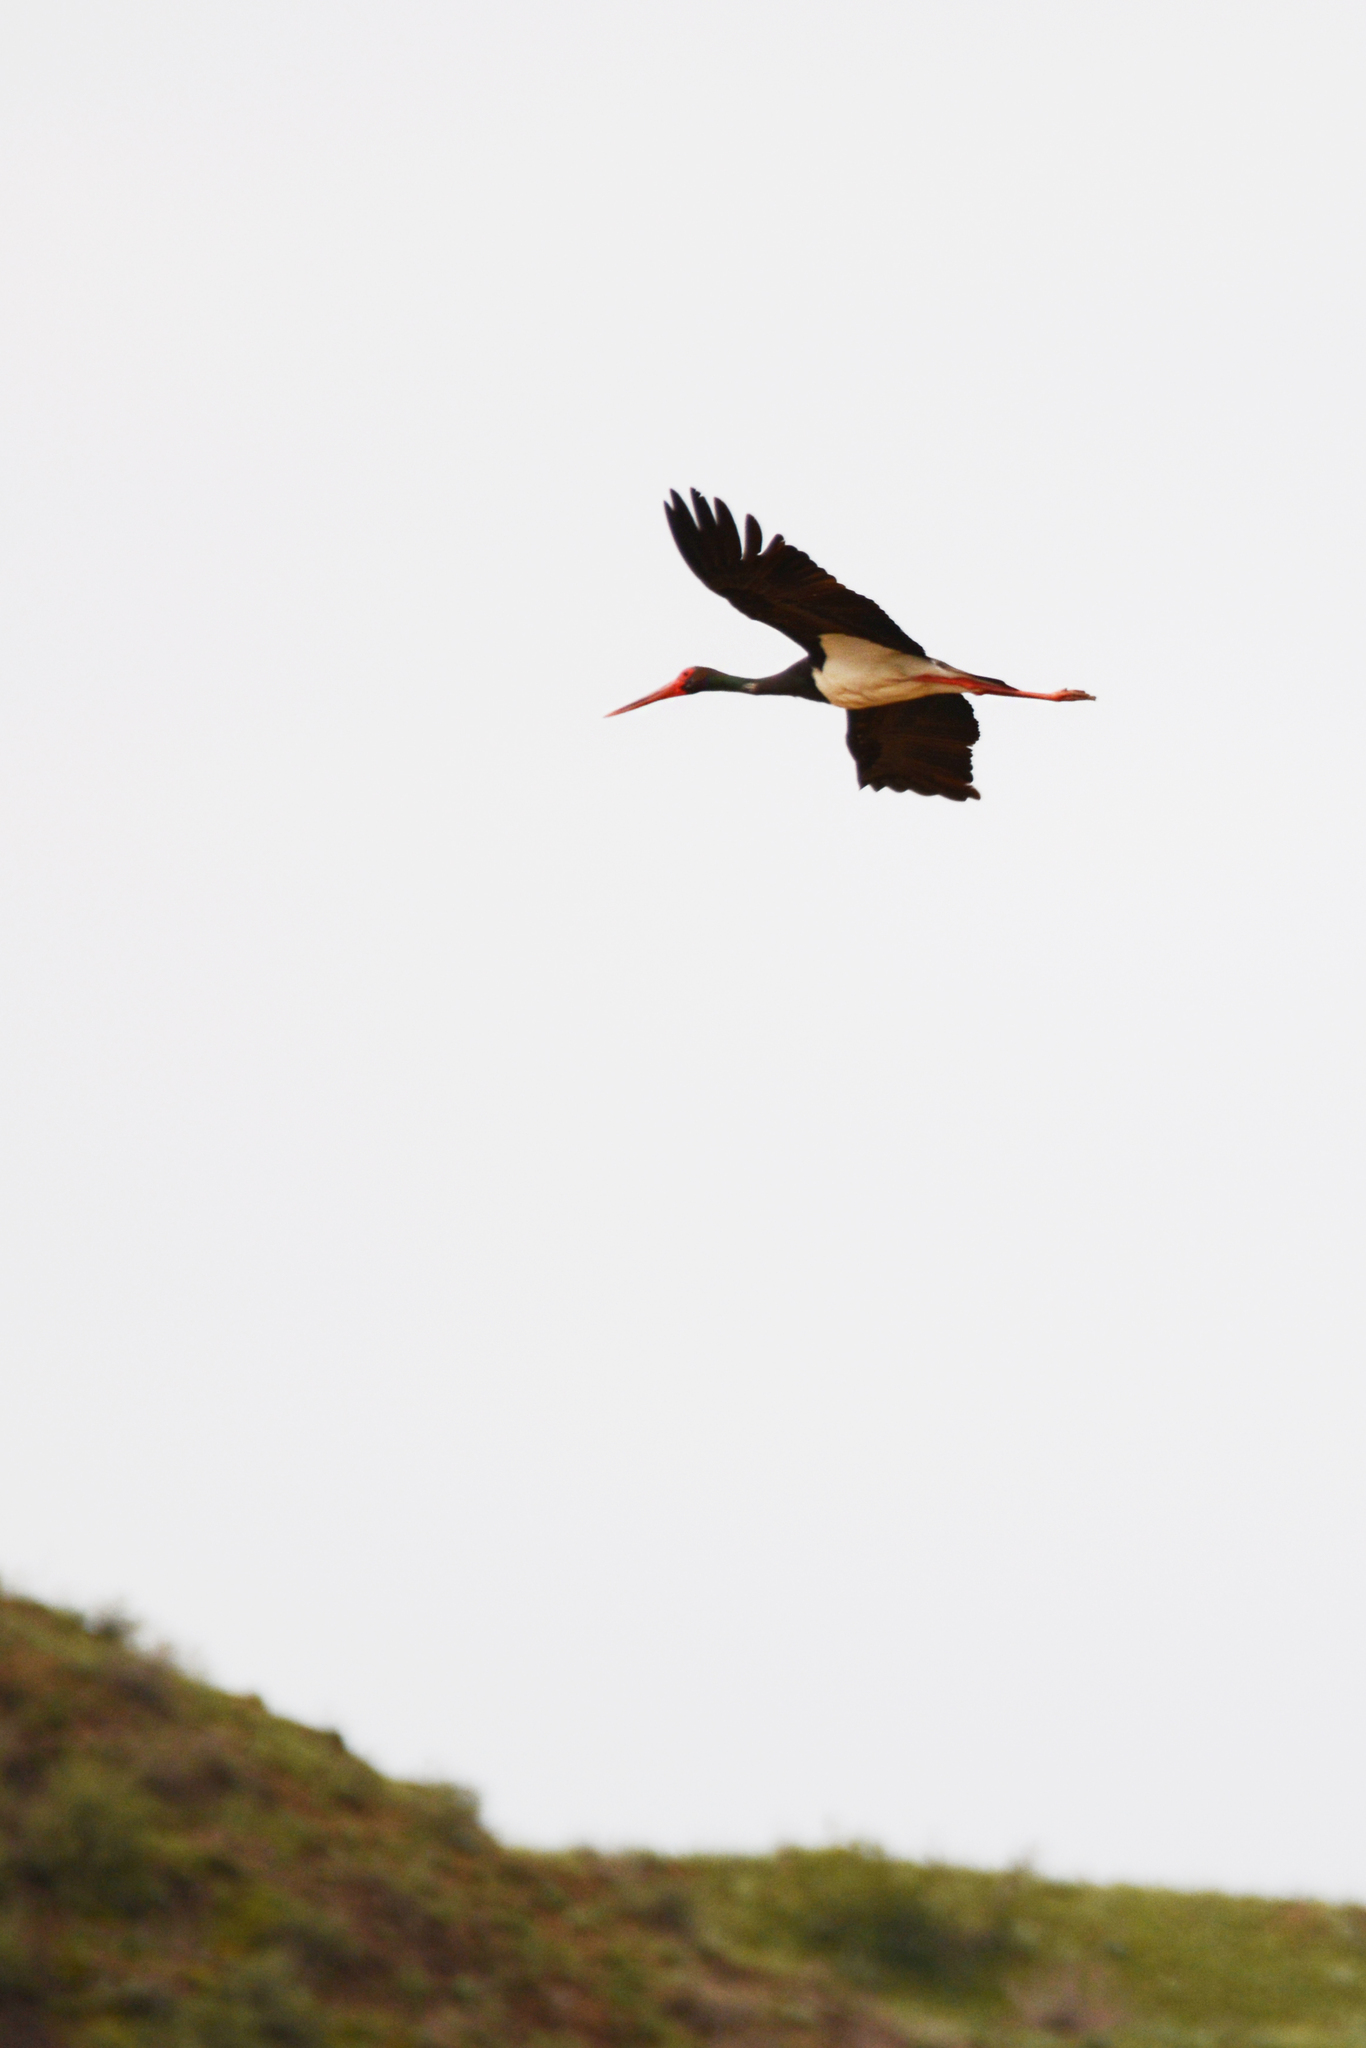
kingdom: Animalia
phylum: Chordata
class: Aves
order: Ciconiiformes
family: Ciconiidae
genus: Ciconia
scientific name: Ciconia nigra
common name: Black stork
